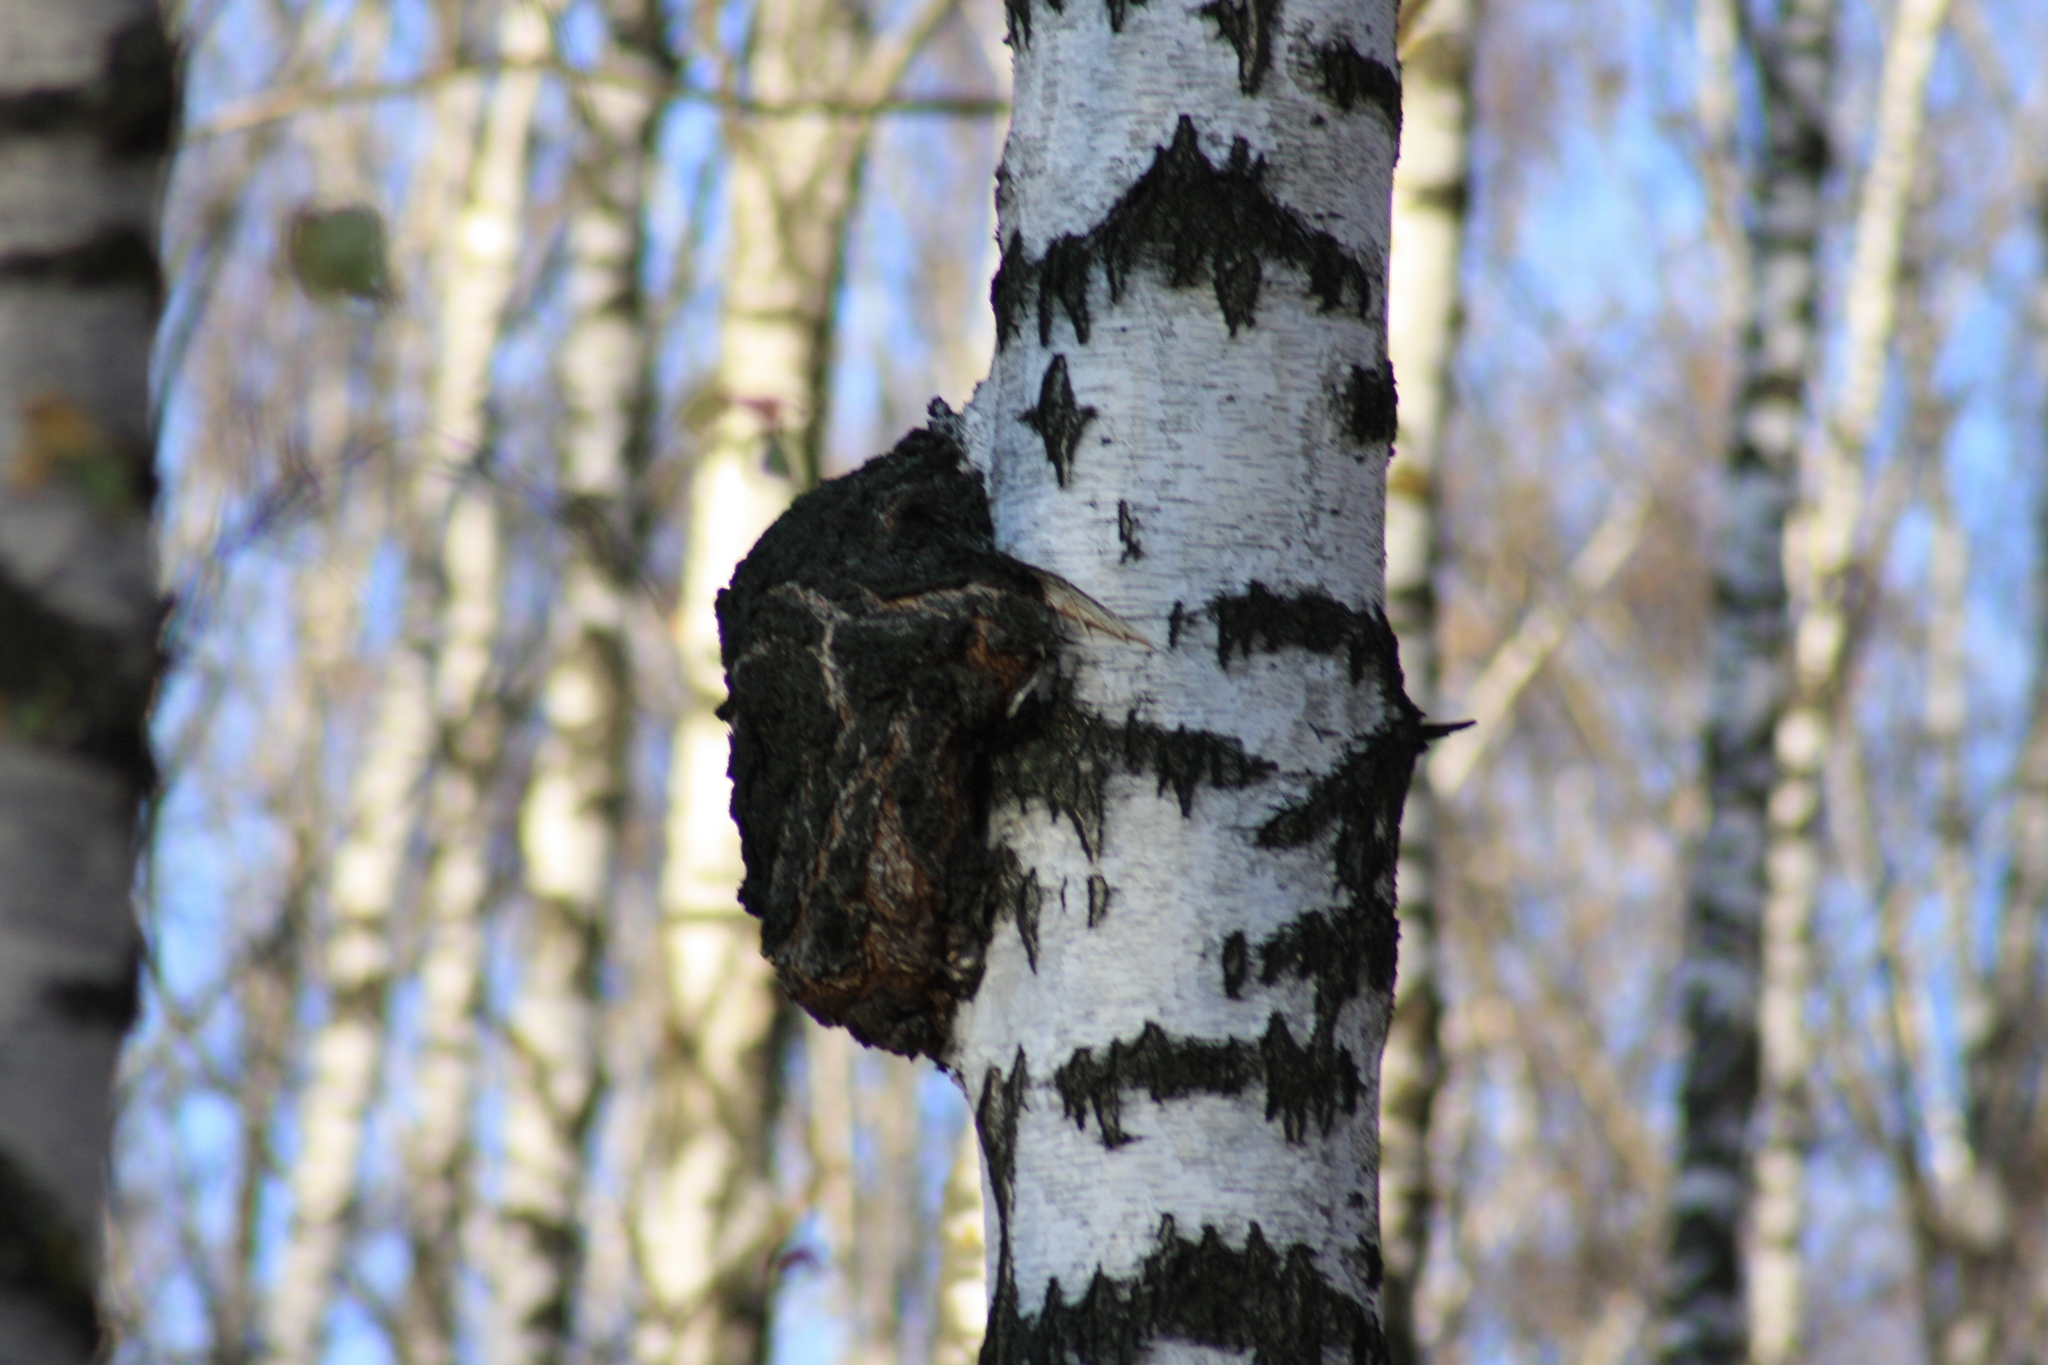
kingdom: Bacteria
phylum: Proteobacteria
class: Alphaproteobacteria
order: Rhizobiales
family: Rhizobiaceae
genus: Rhizobium
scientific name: Rhizobium Agrobacterium radiobacter
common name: Bacterial crown gall
